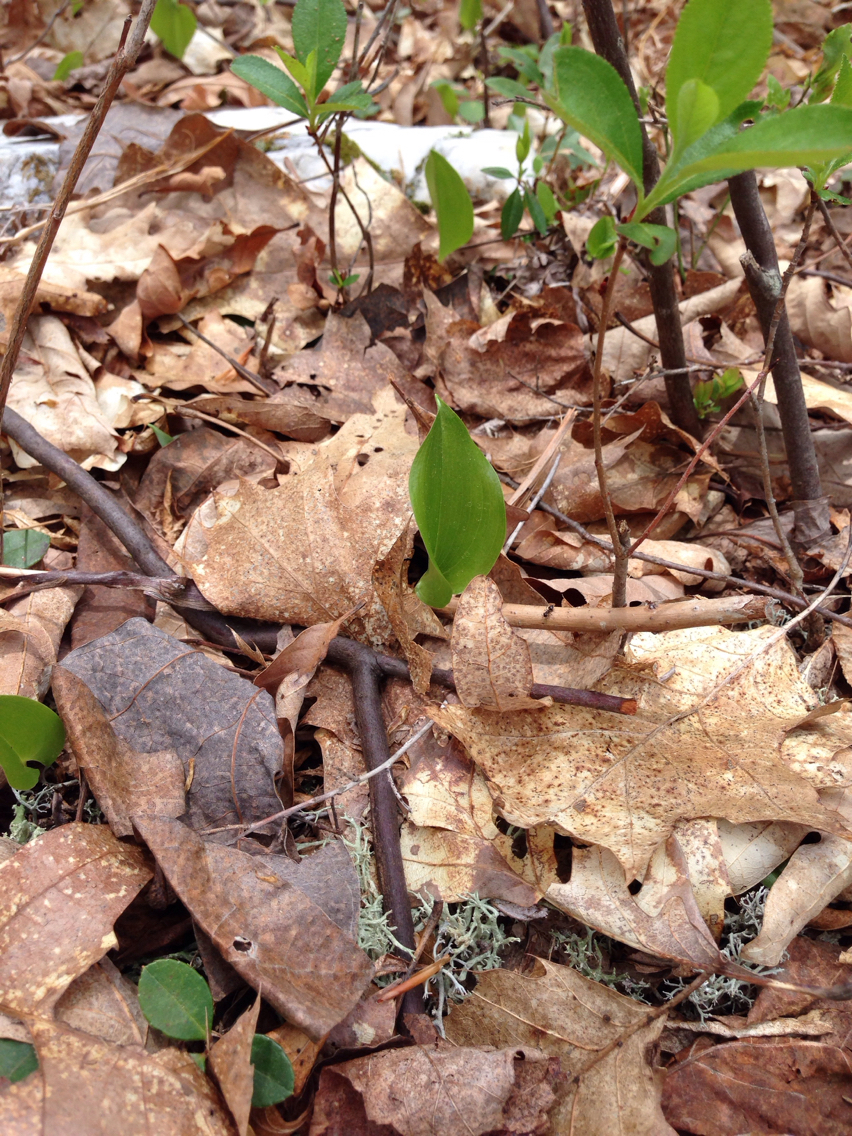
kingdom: Plantae
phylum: Tracheophyta
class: Liliopsida
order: Asparagales
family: Asparagaceae
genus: Maianthemum
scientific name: Maianthemum canadense
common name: False lily-of-the-valley
